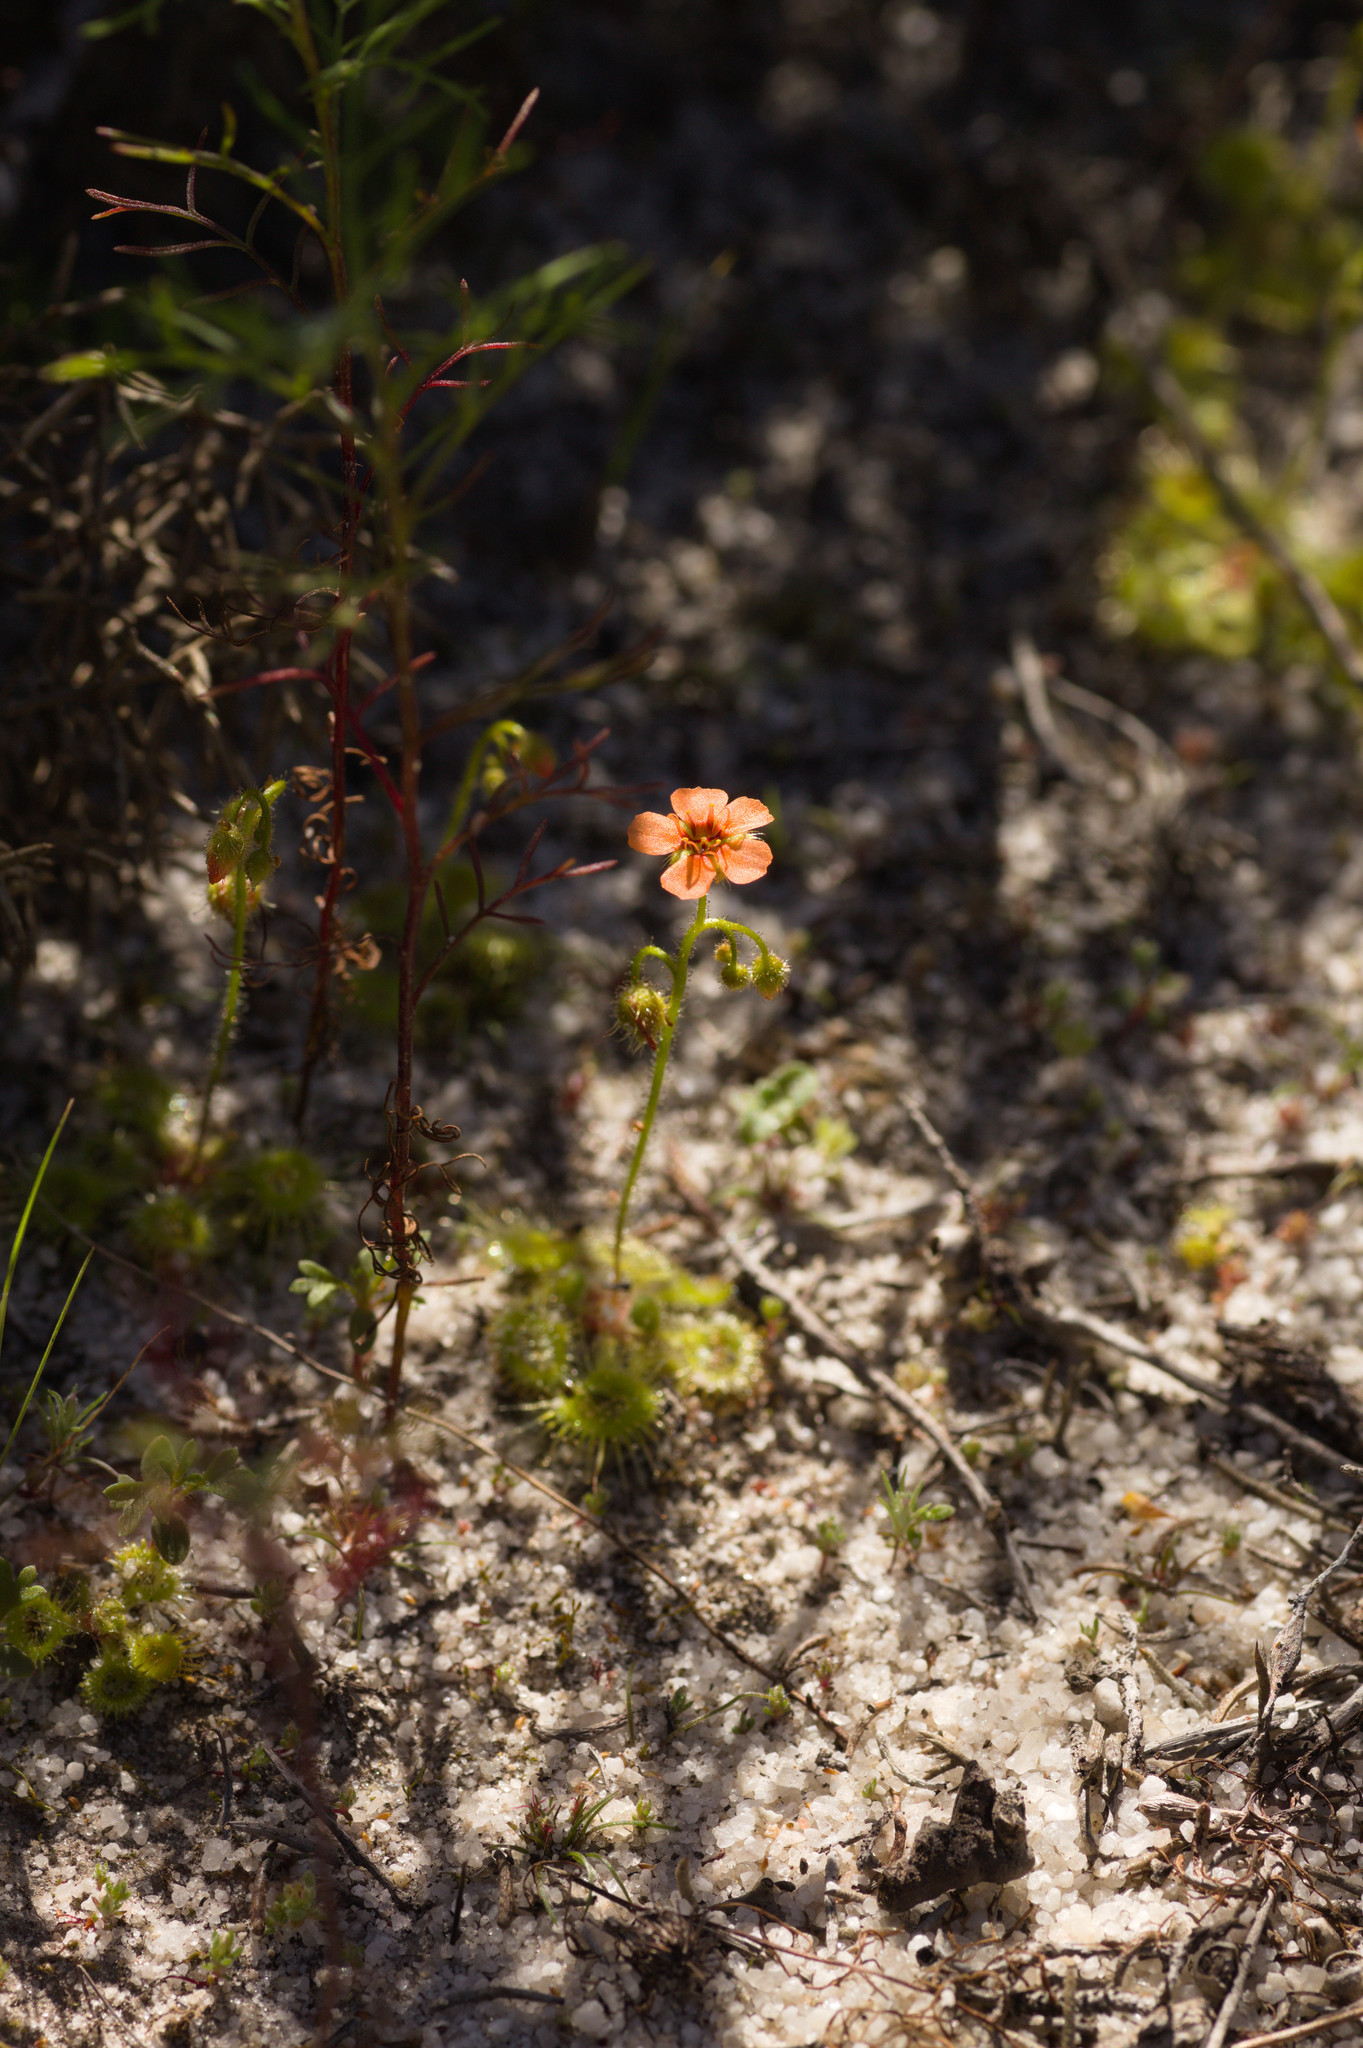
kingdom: Plantae
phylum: Tracheophyta
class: Magnoliopsida
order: Caryophyllales
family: Droseraceae
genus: Drosera
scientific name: Drosera glanduligera
